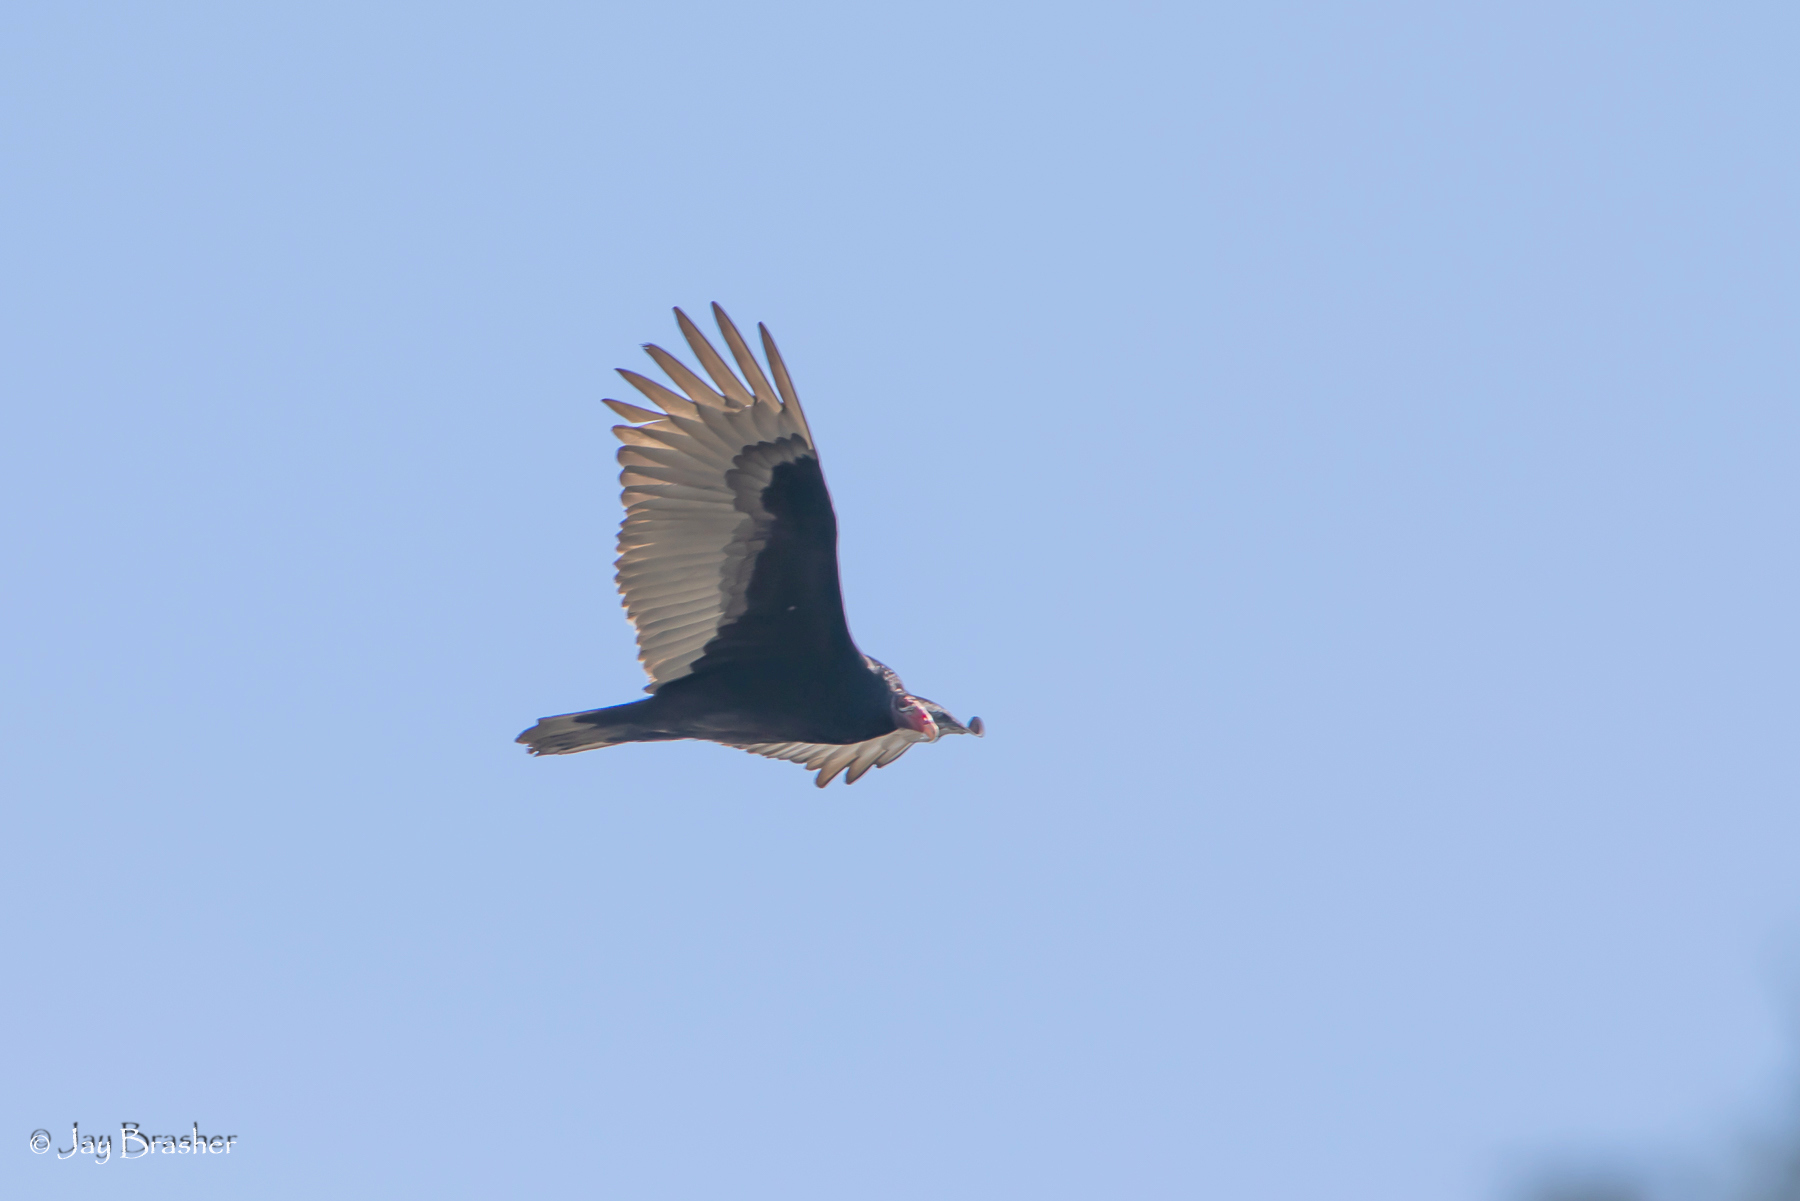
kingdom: Animalia
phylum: Chordata
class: Aves
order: Accipitriformes
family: Cathartidae
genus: Cathartes
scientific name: Cathartes aura
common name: Turkey vulture
